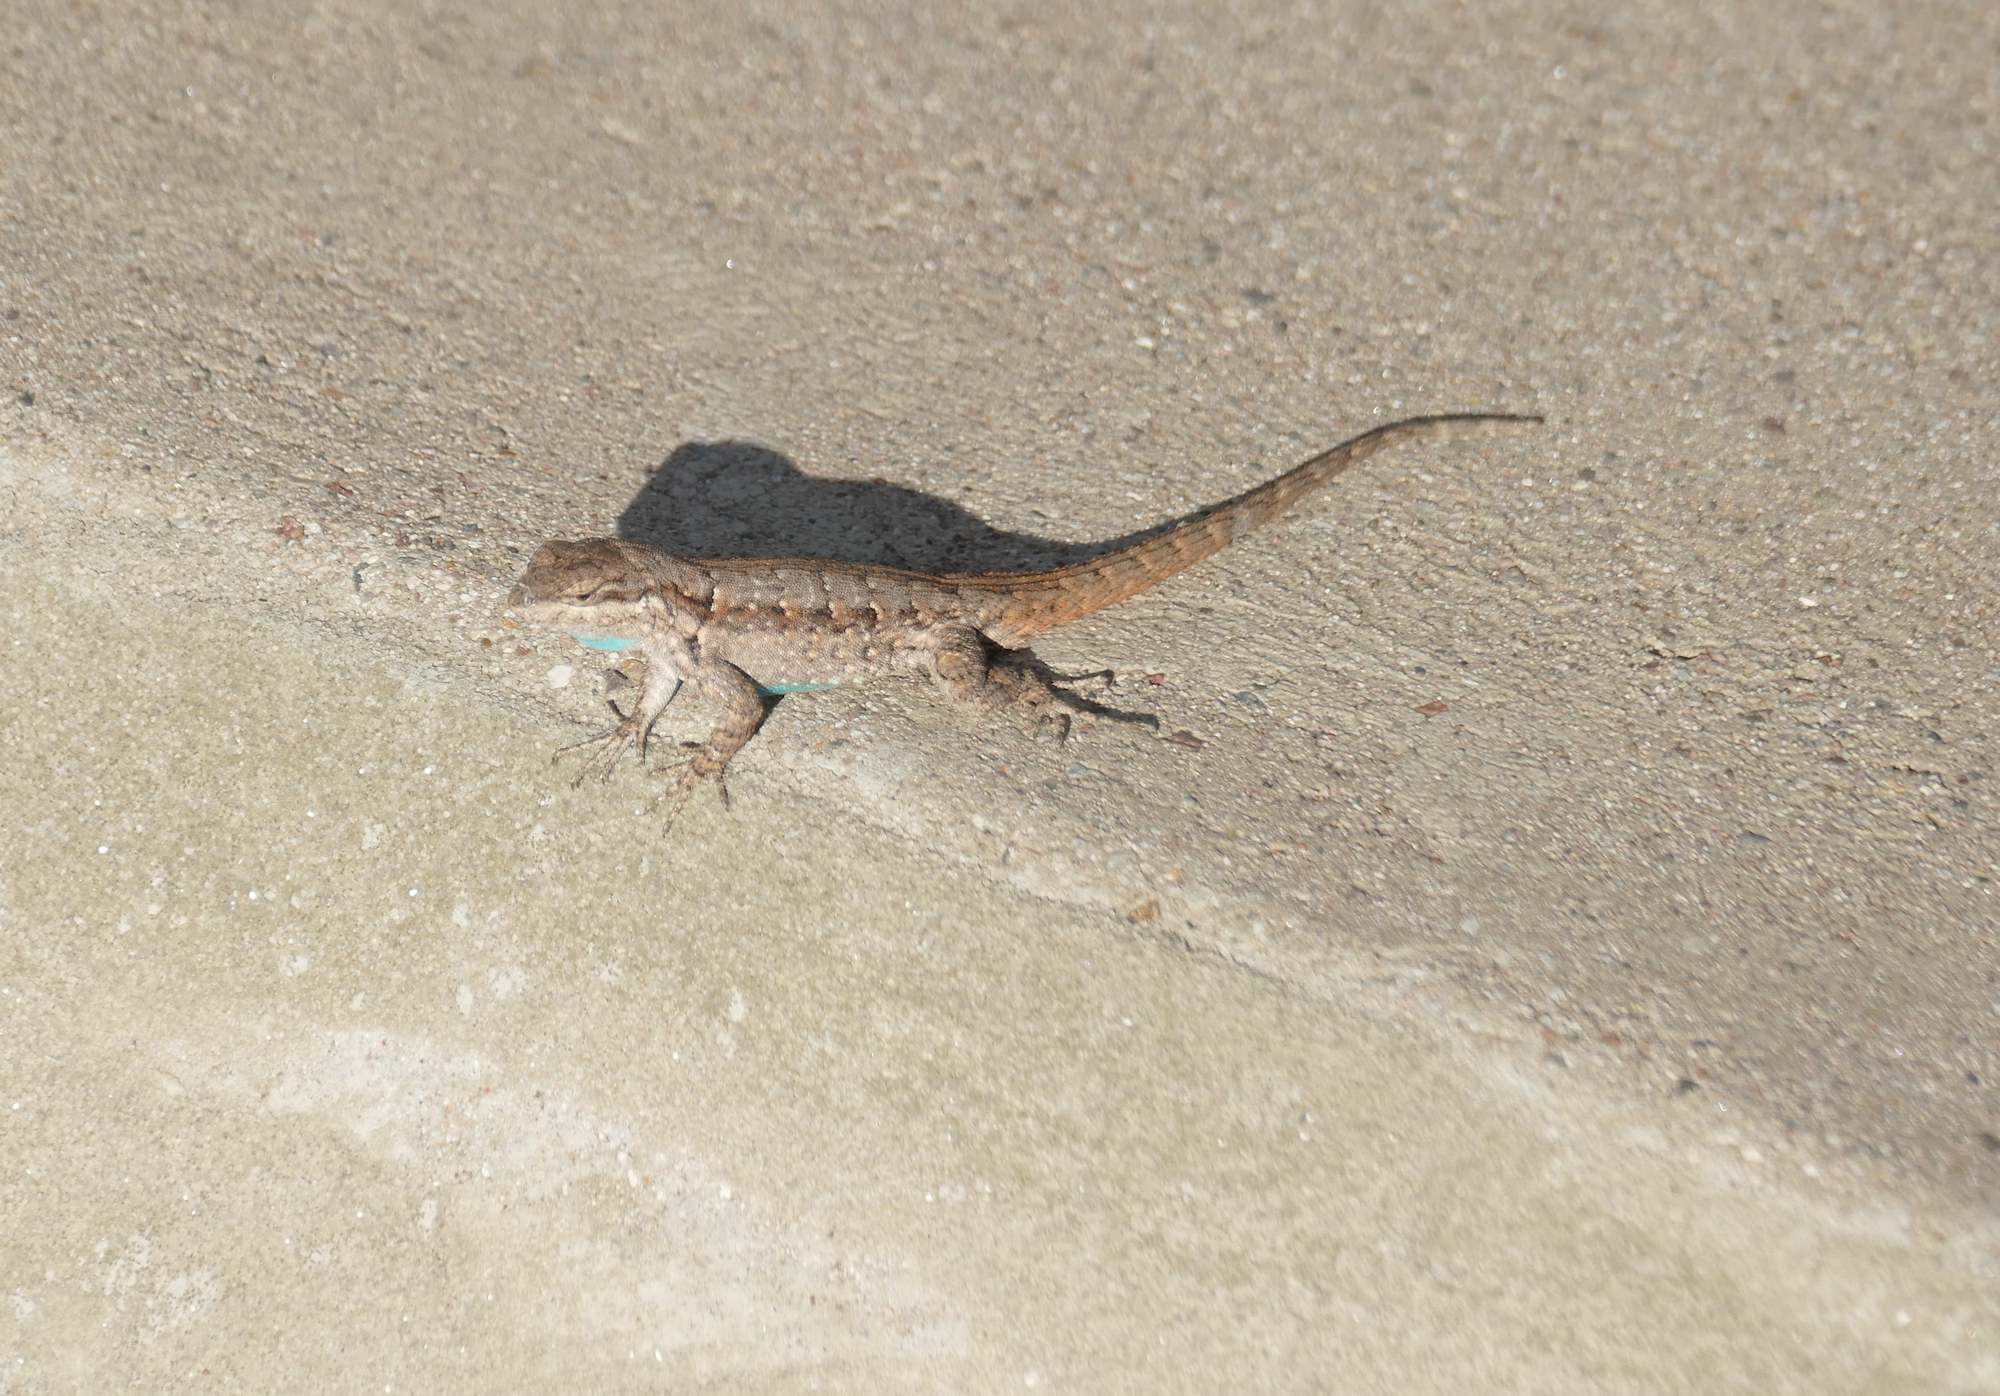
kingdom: Animalia
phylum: Chordata
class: Squamata
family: Phrynosomatidae
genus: Urosaurus
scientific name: Urosaurus ornatus
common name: Ornate tree lizard
